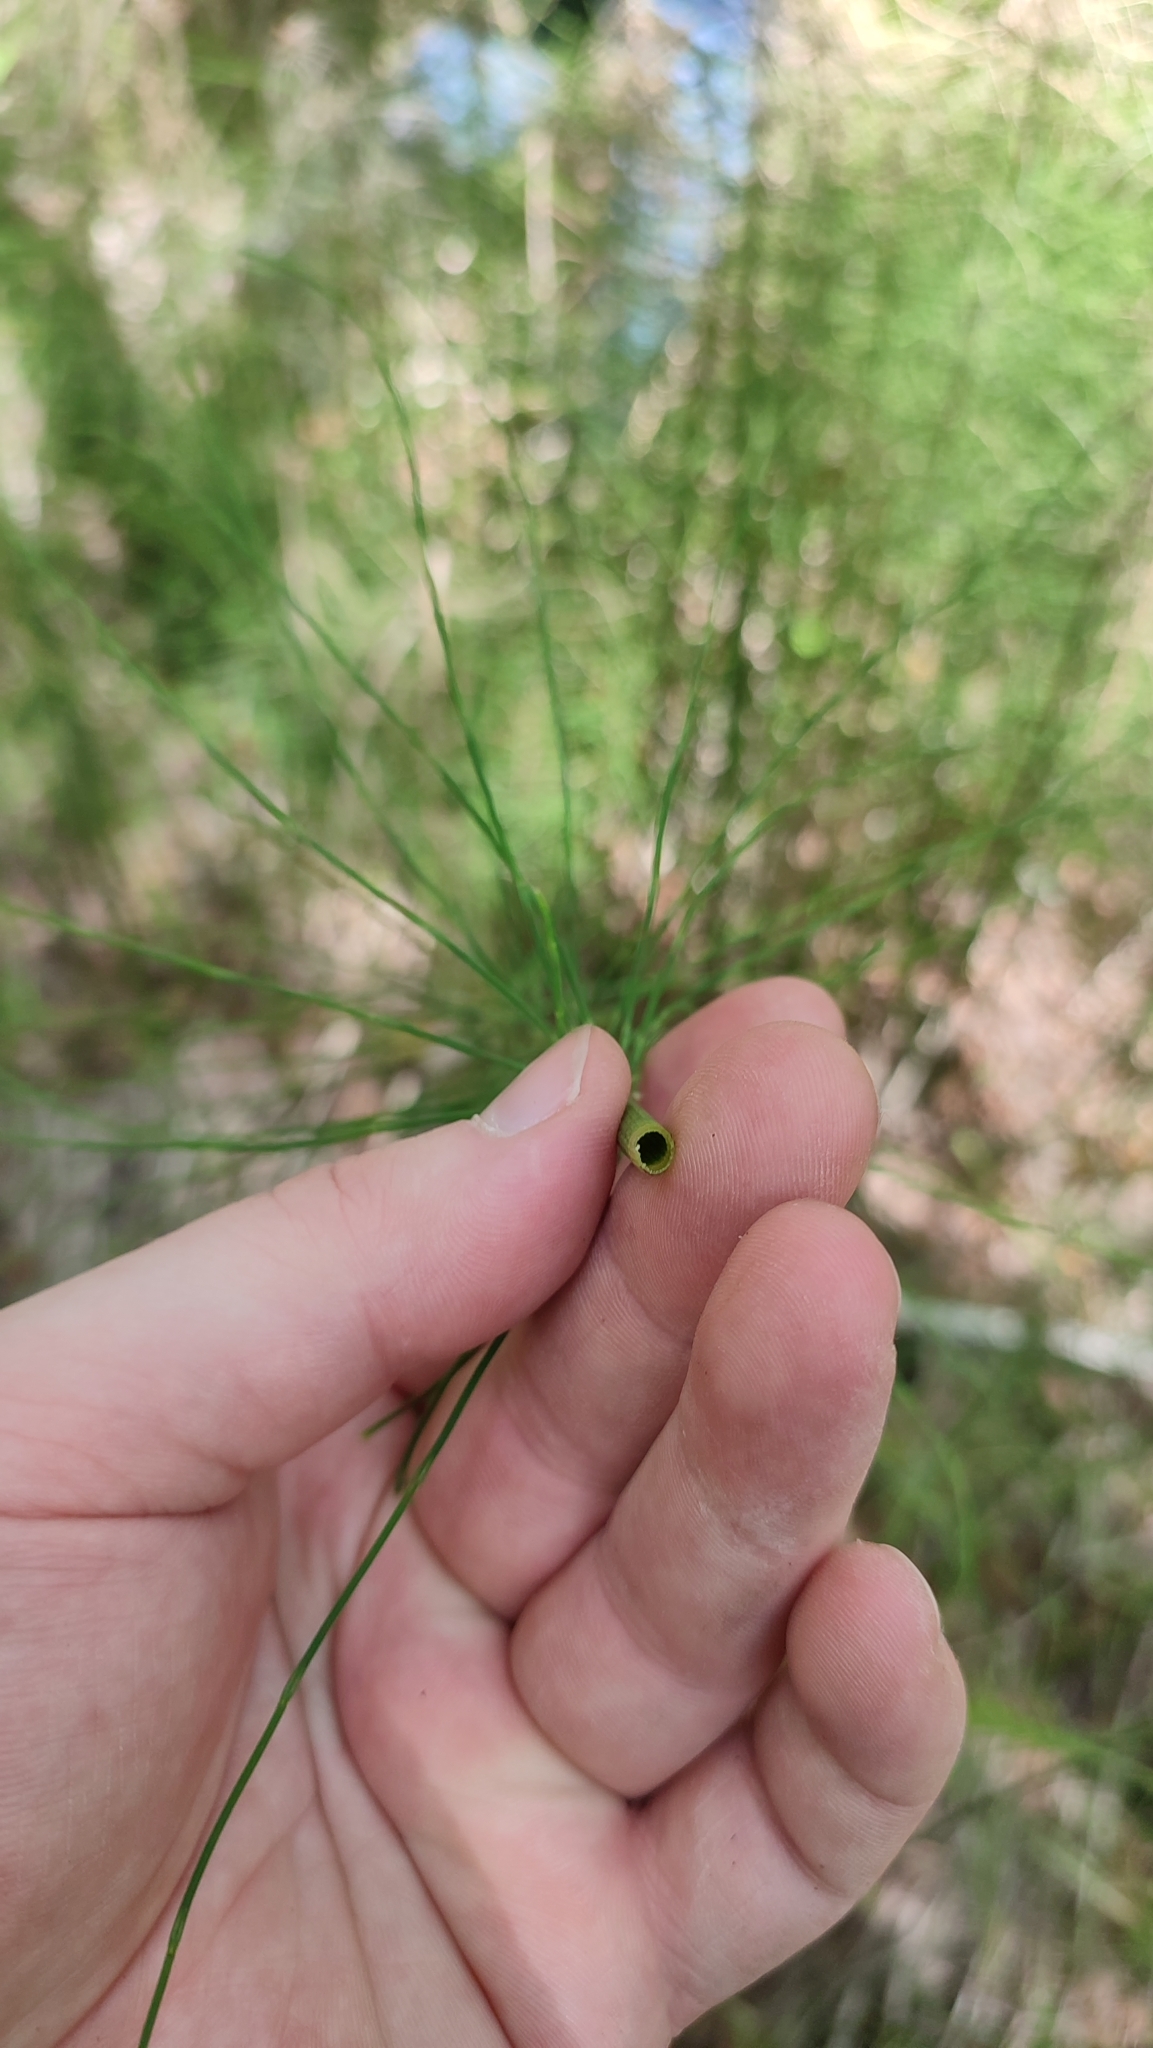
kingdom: Plantae
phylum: Tracheophyta
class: Polypodiopsida
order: Equisetales
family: Equisetaceae
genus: Equisetum
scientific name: Equisetum fluviatile
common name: Water horsetail
